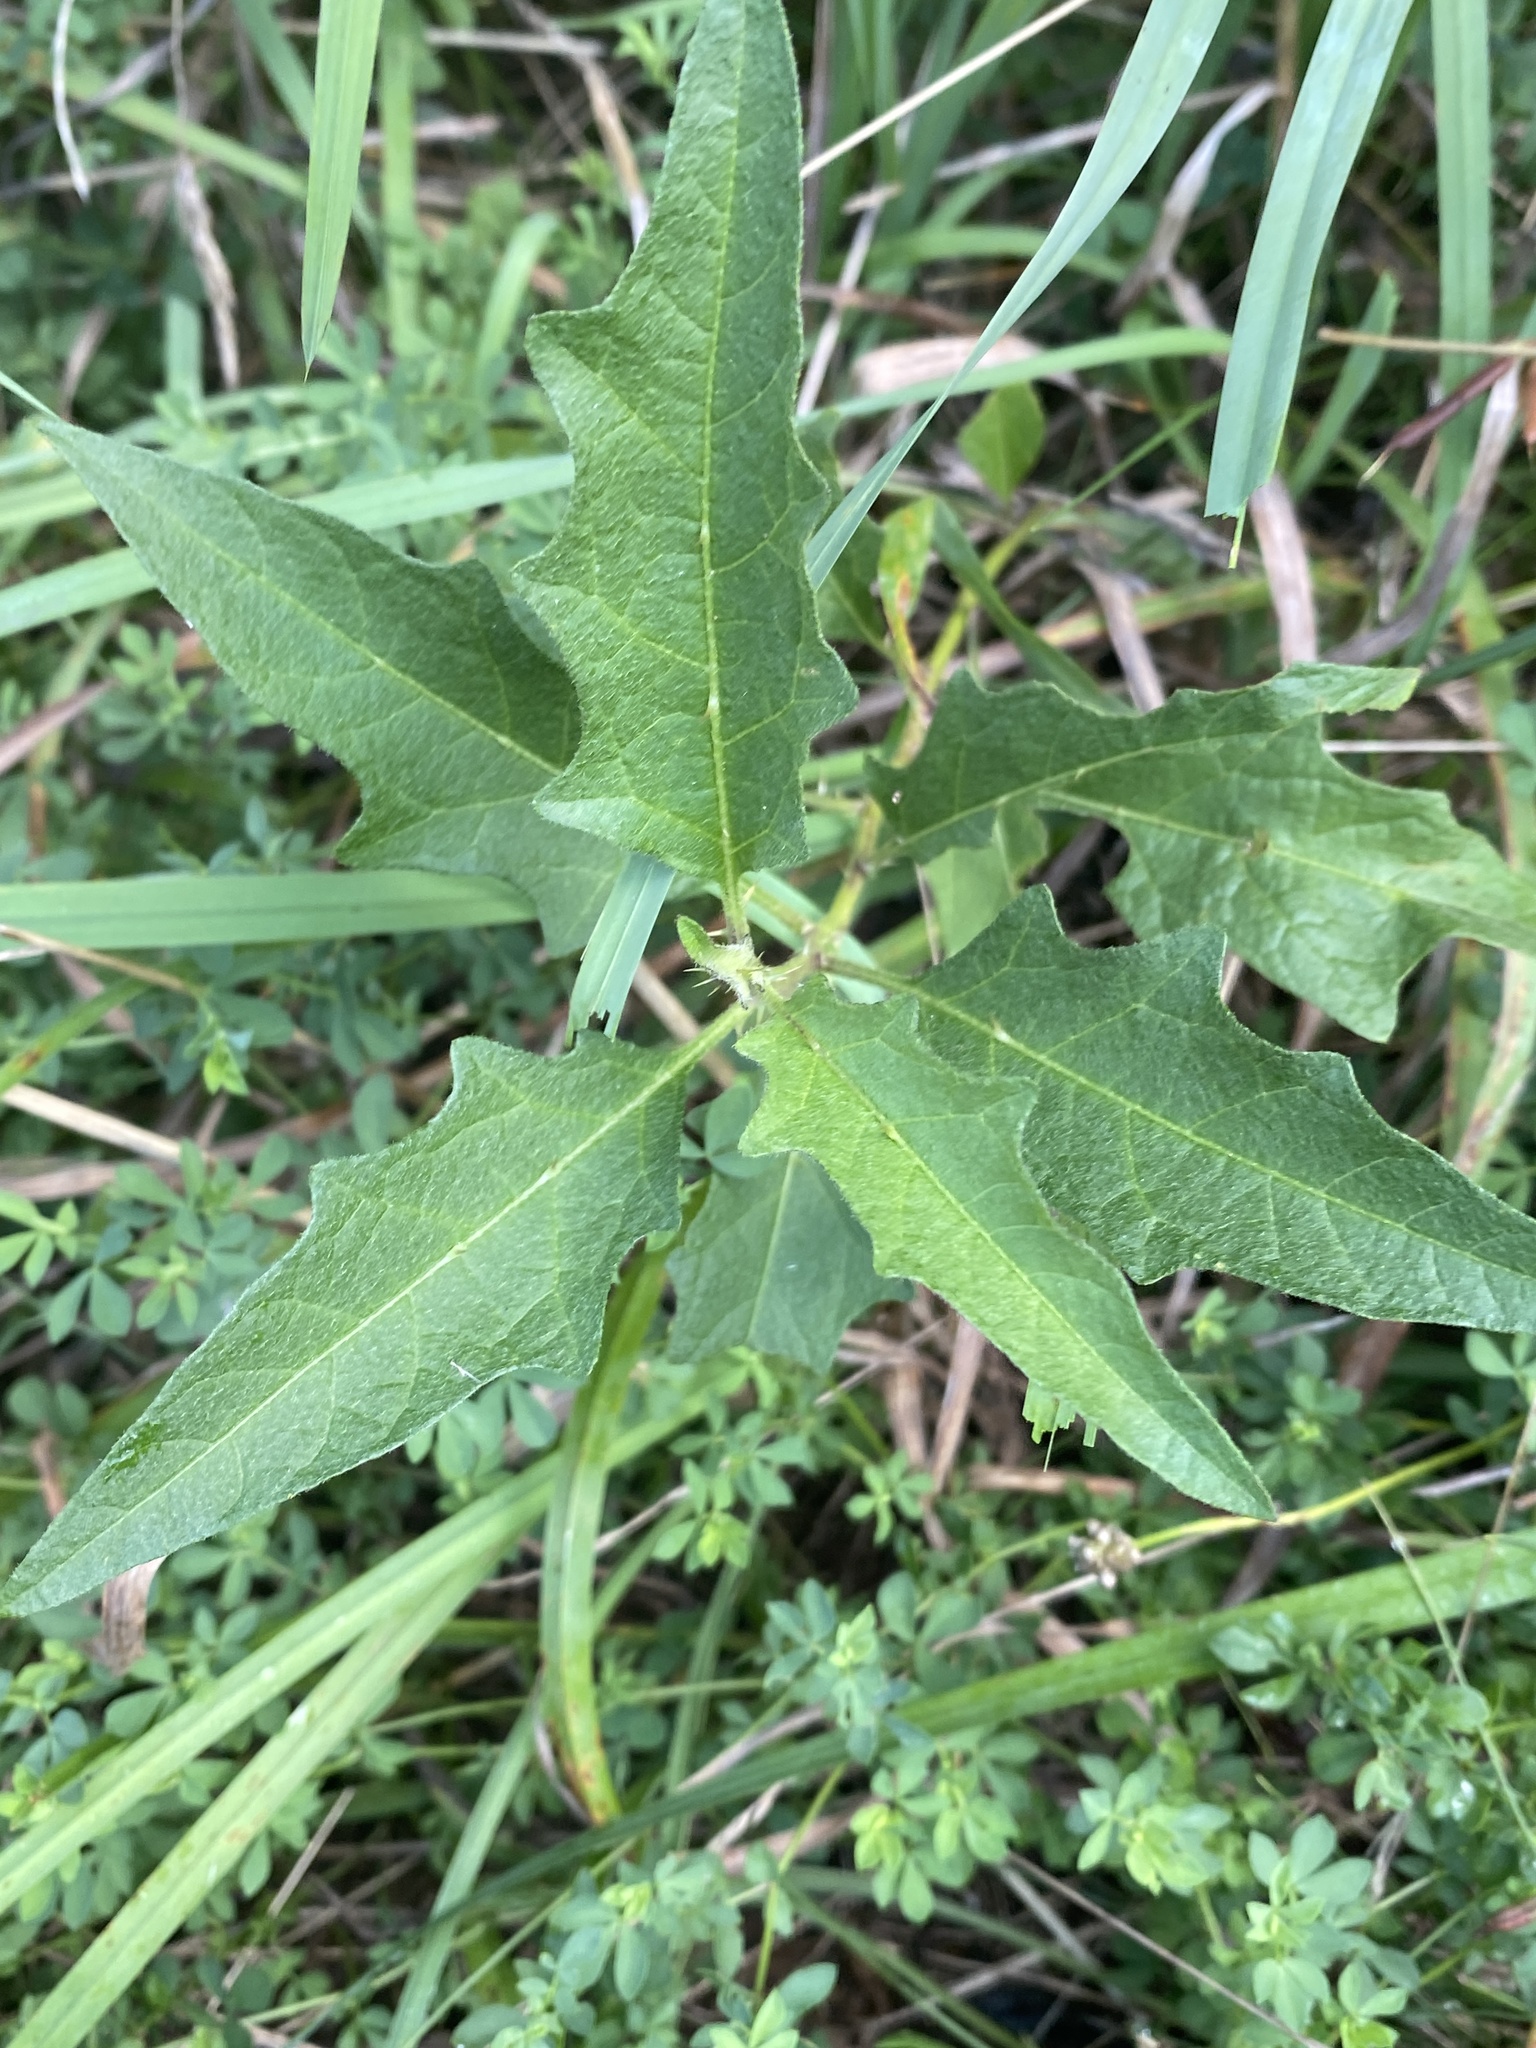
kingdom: Plantae
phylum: Tracheophyta
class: Magnoliopsida
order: Solanales
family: Solanaceae
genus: Solanum
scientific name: Solanum carolinense
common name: Horse-nettle
